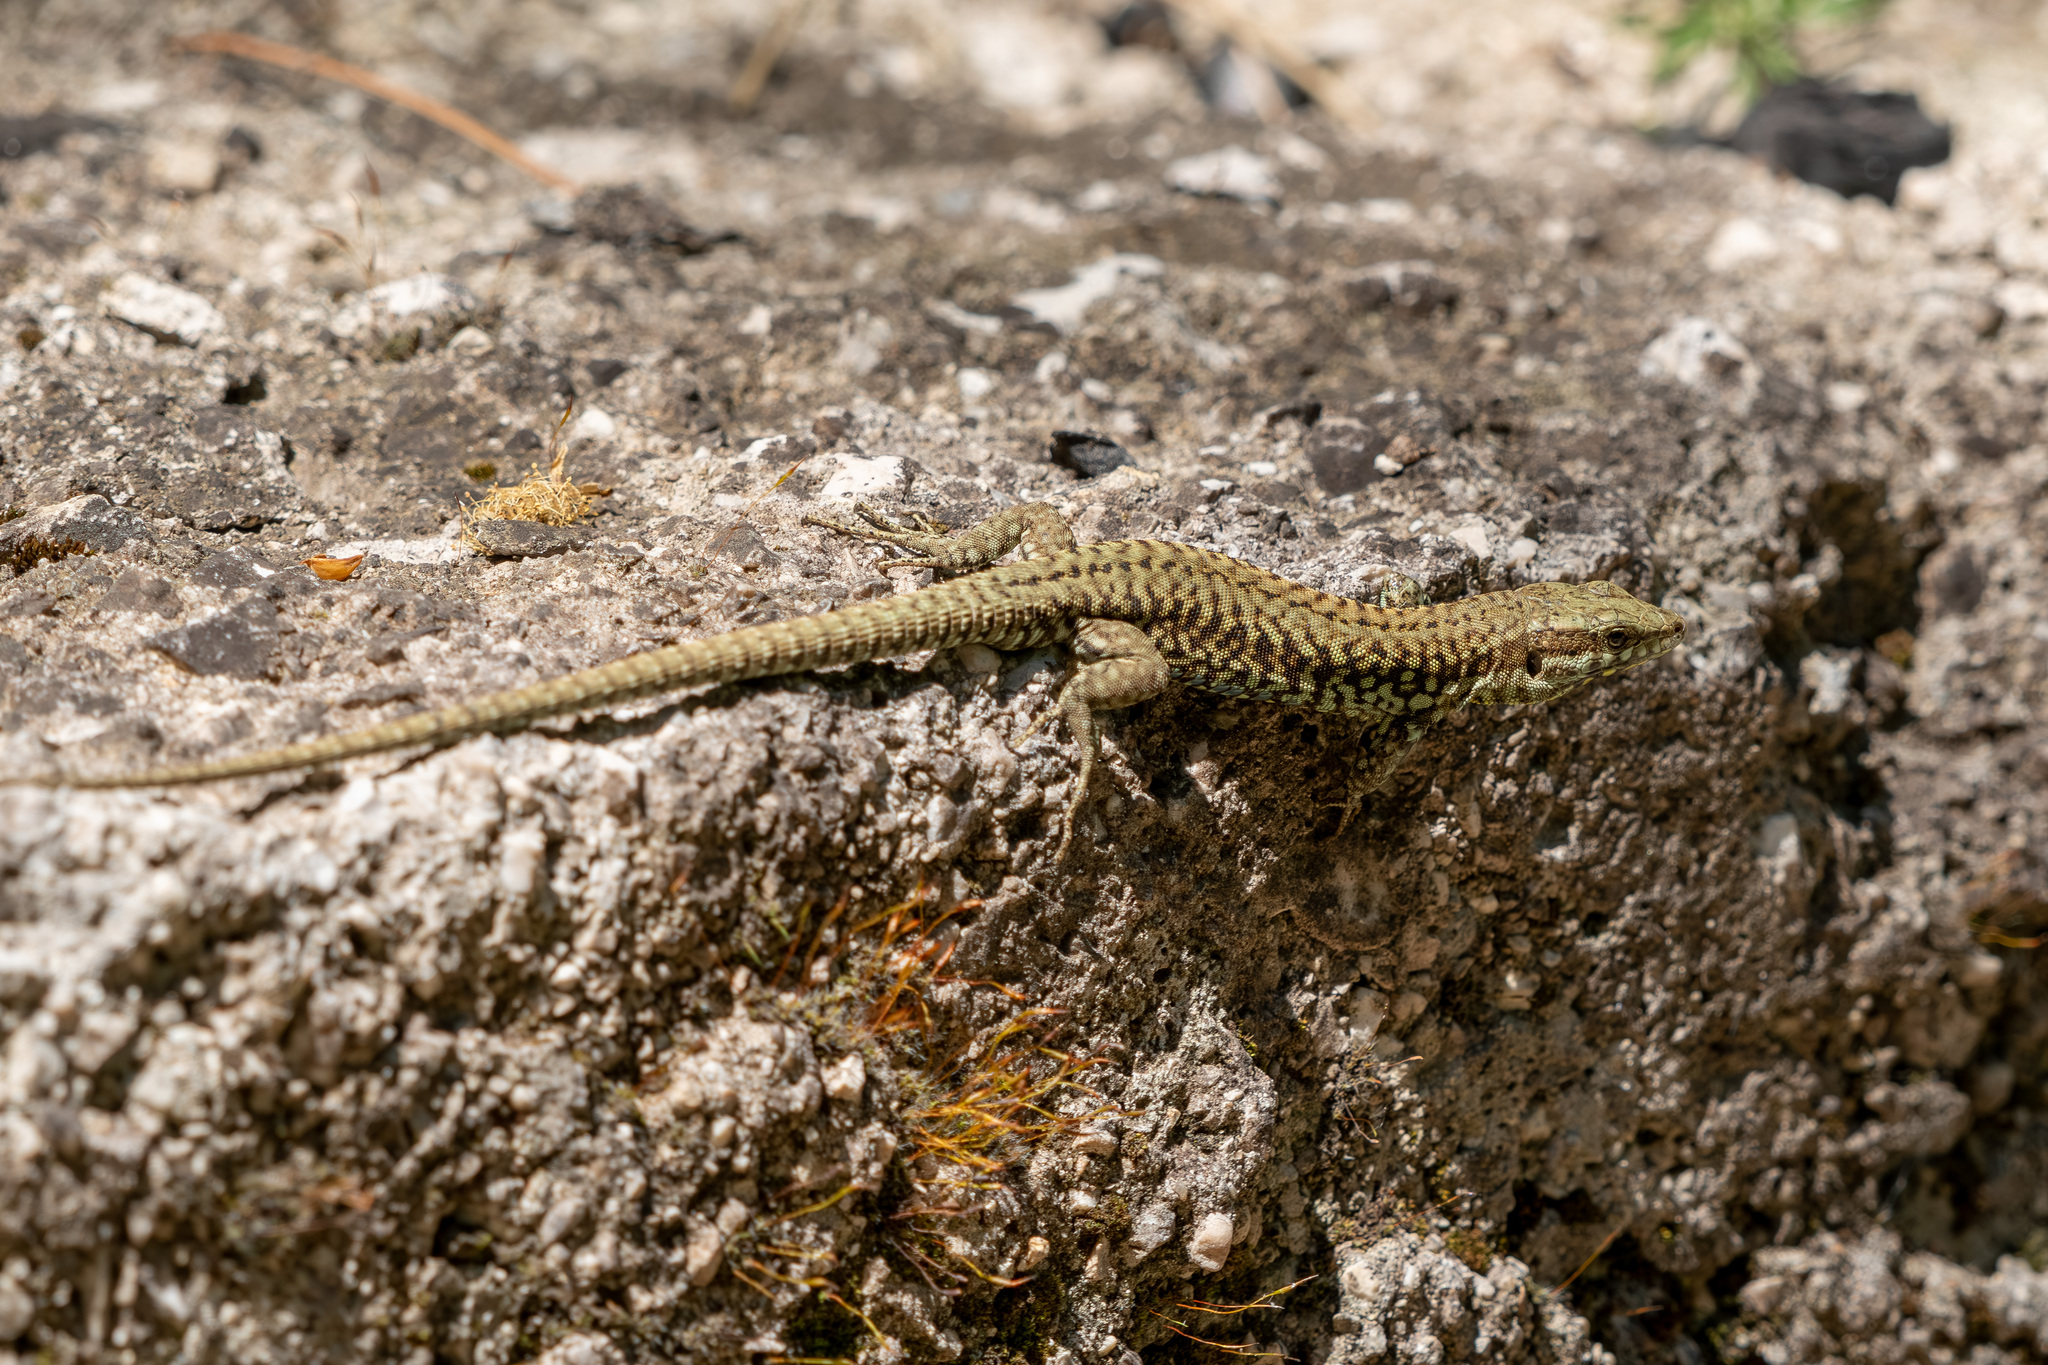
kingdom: Animalia
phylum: Chordata
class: Squamata
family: Lacertidae
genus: Podarcis
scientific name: Podarcis muralis
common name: Common wall lizard
